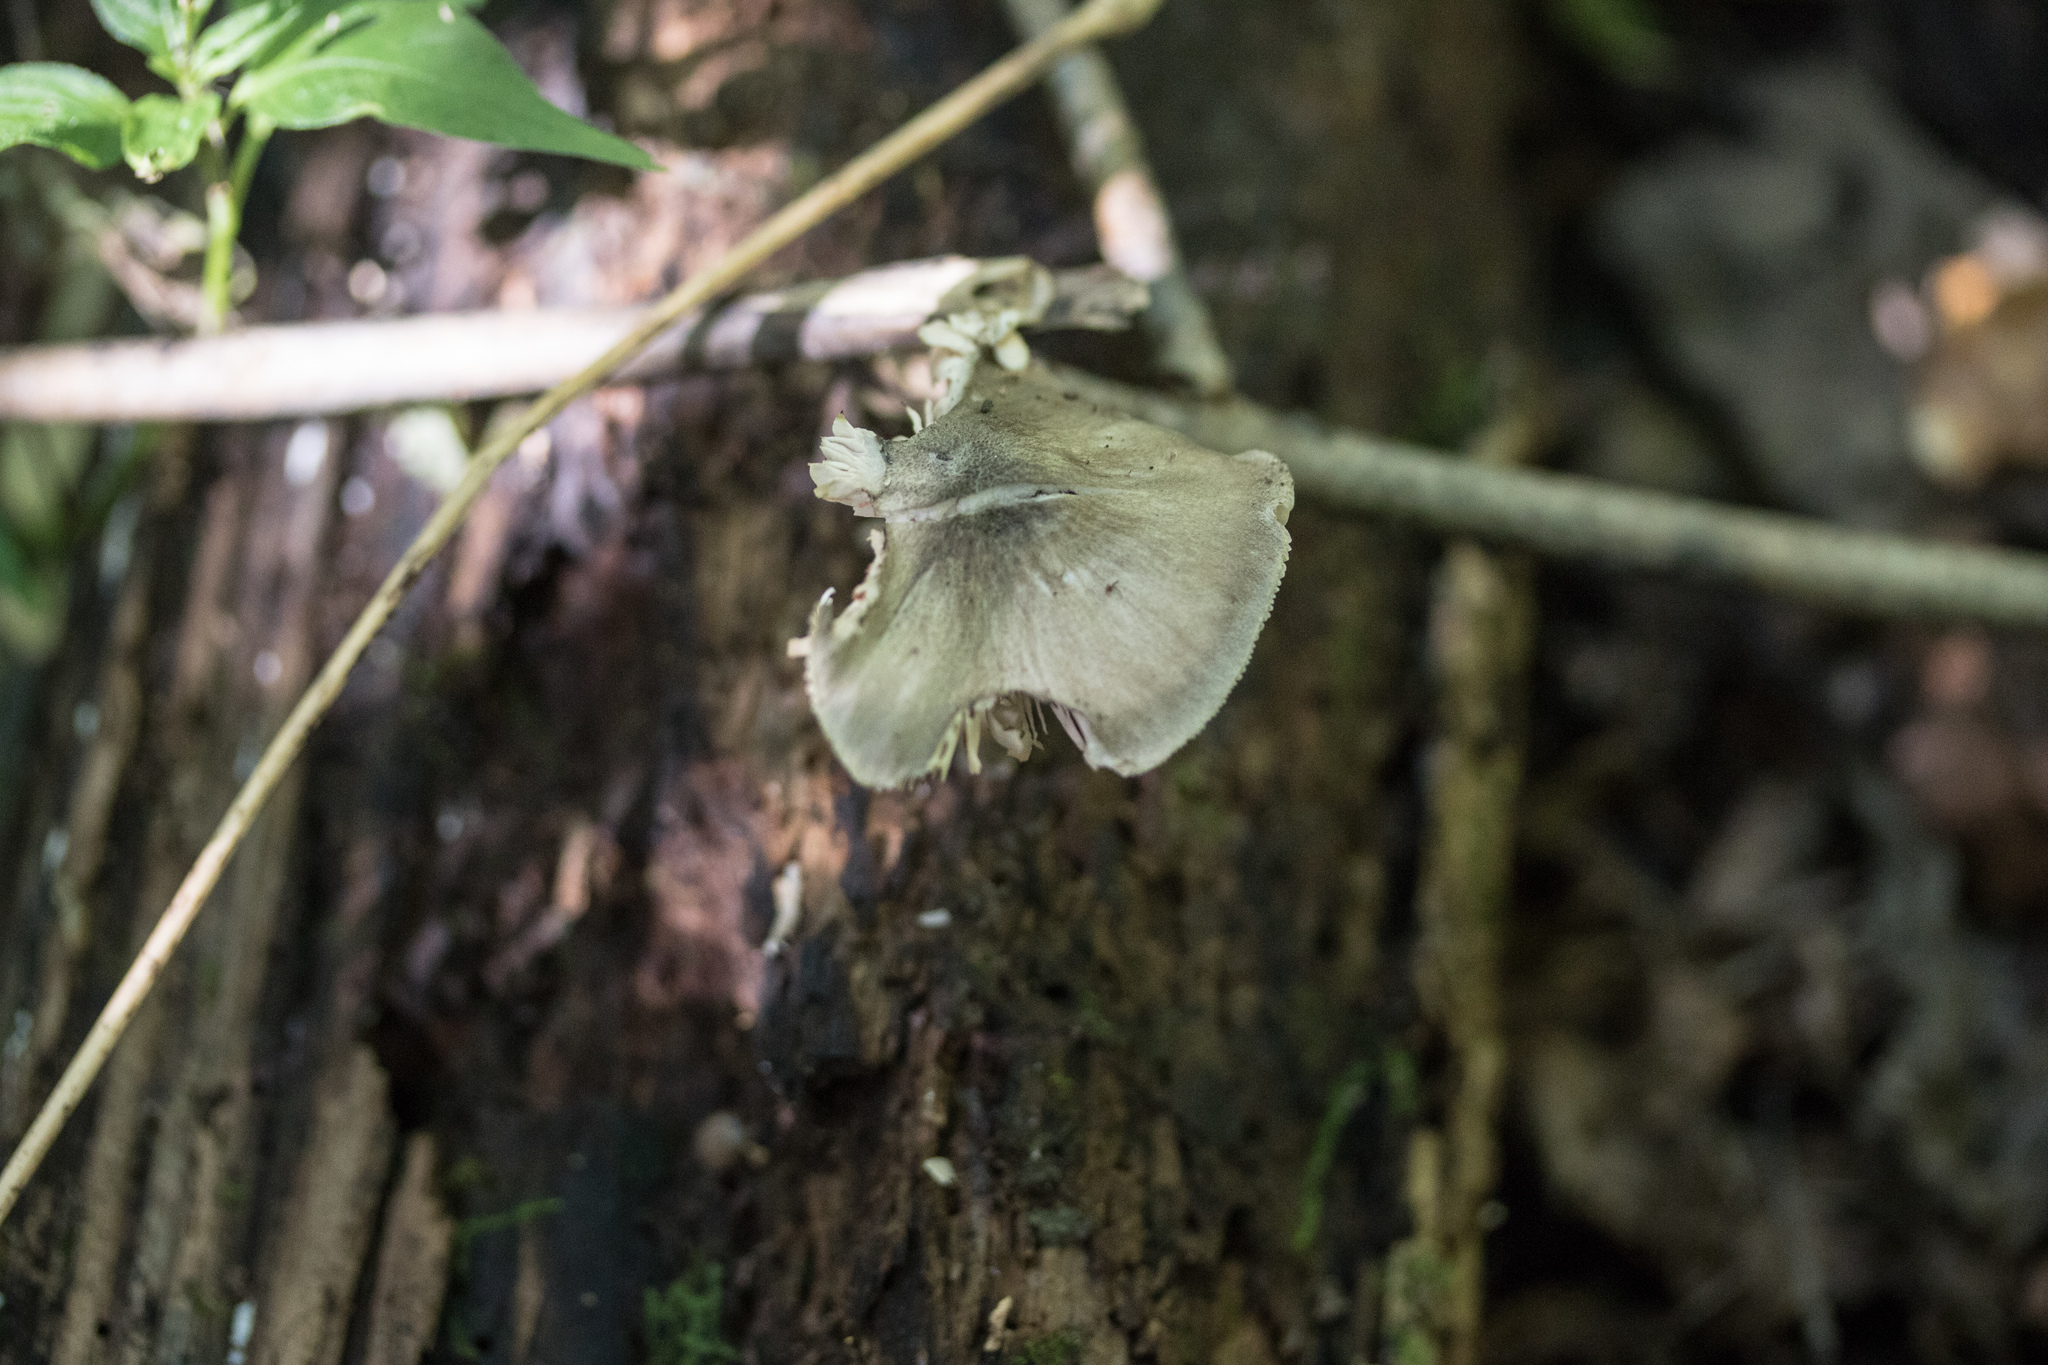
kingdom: Fungi
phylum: Basidiomycota
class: Agaricomycetes
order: Agaricales
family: Pluteaceae
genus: Pluteus
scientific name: Pluteus americanus
